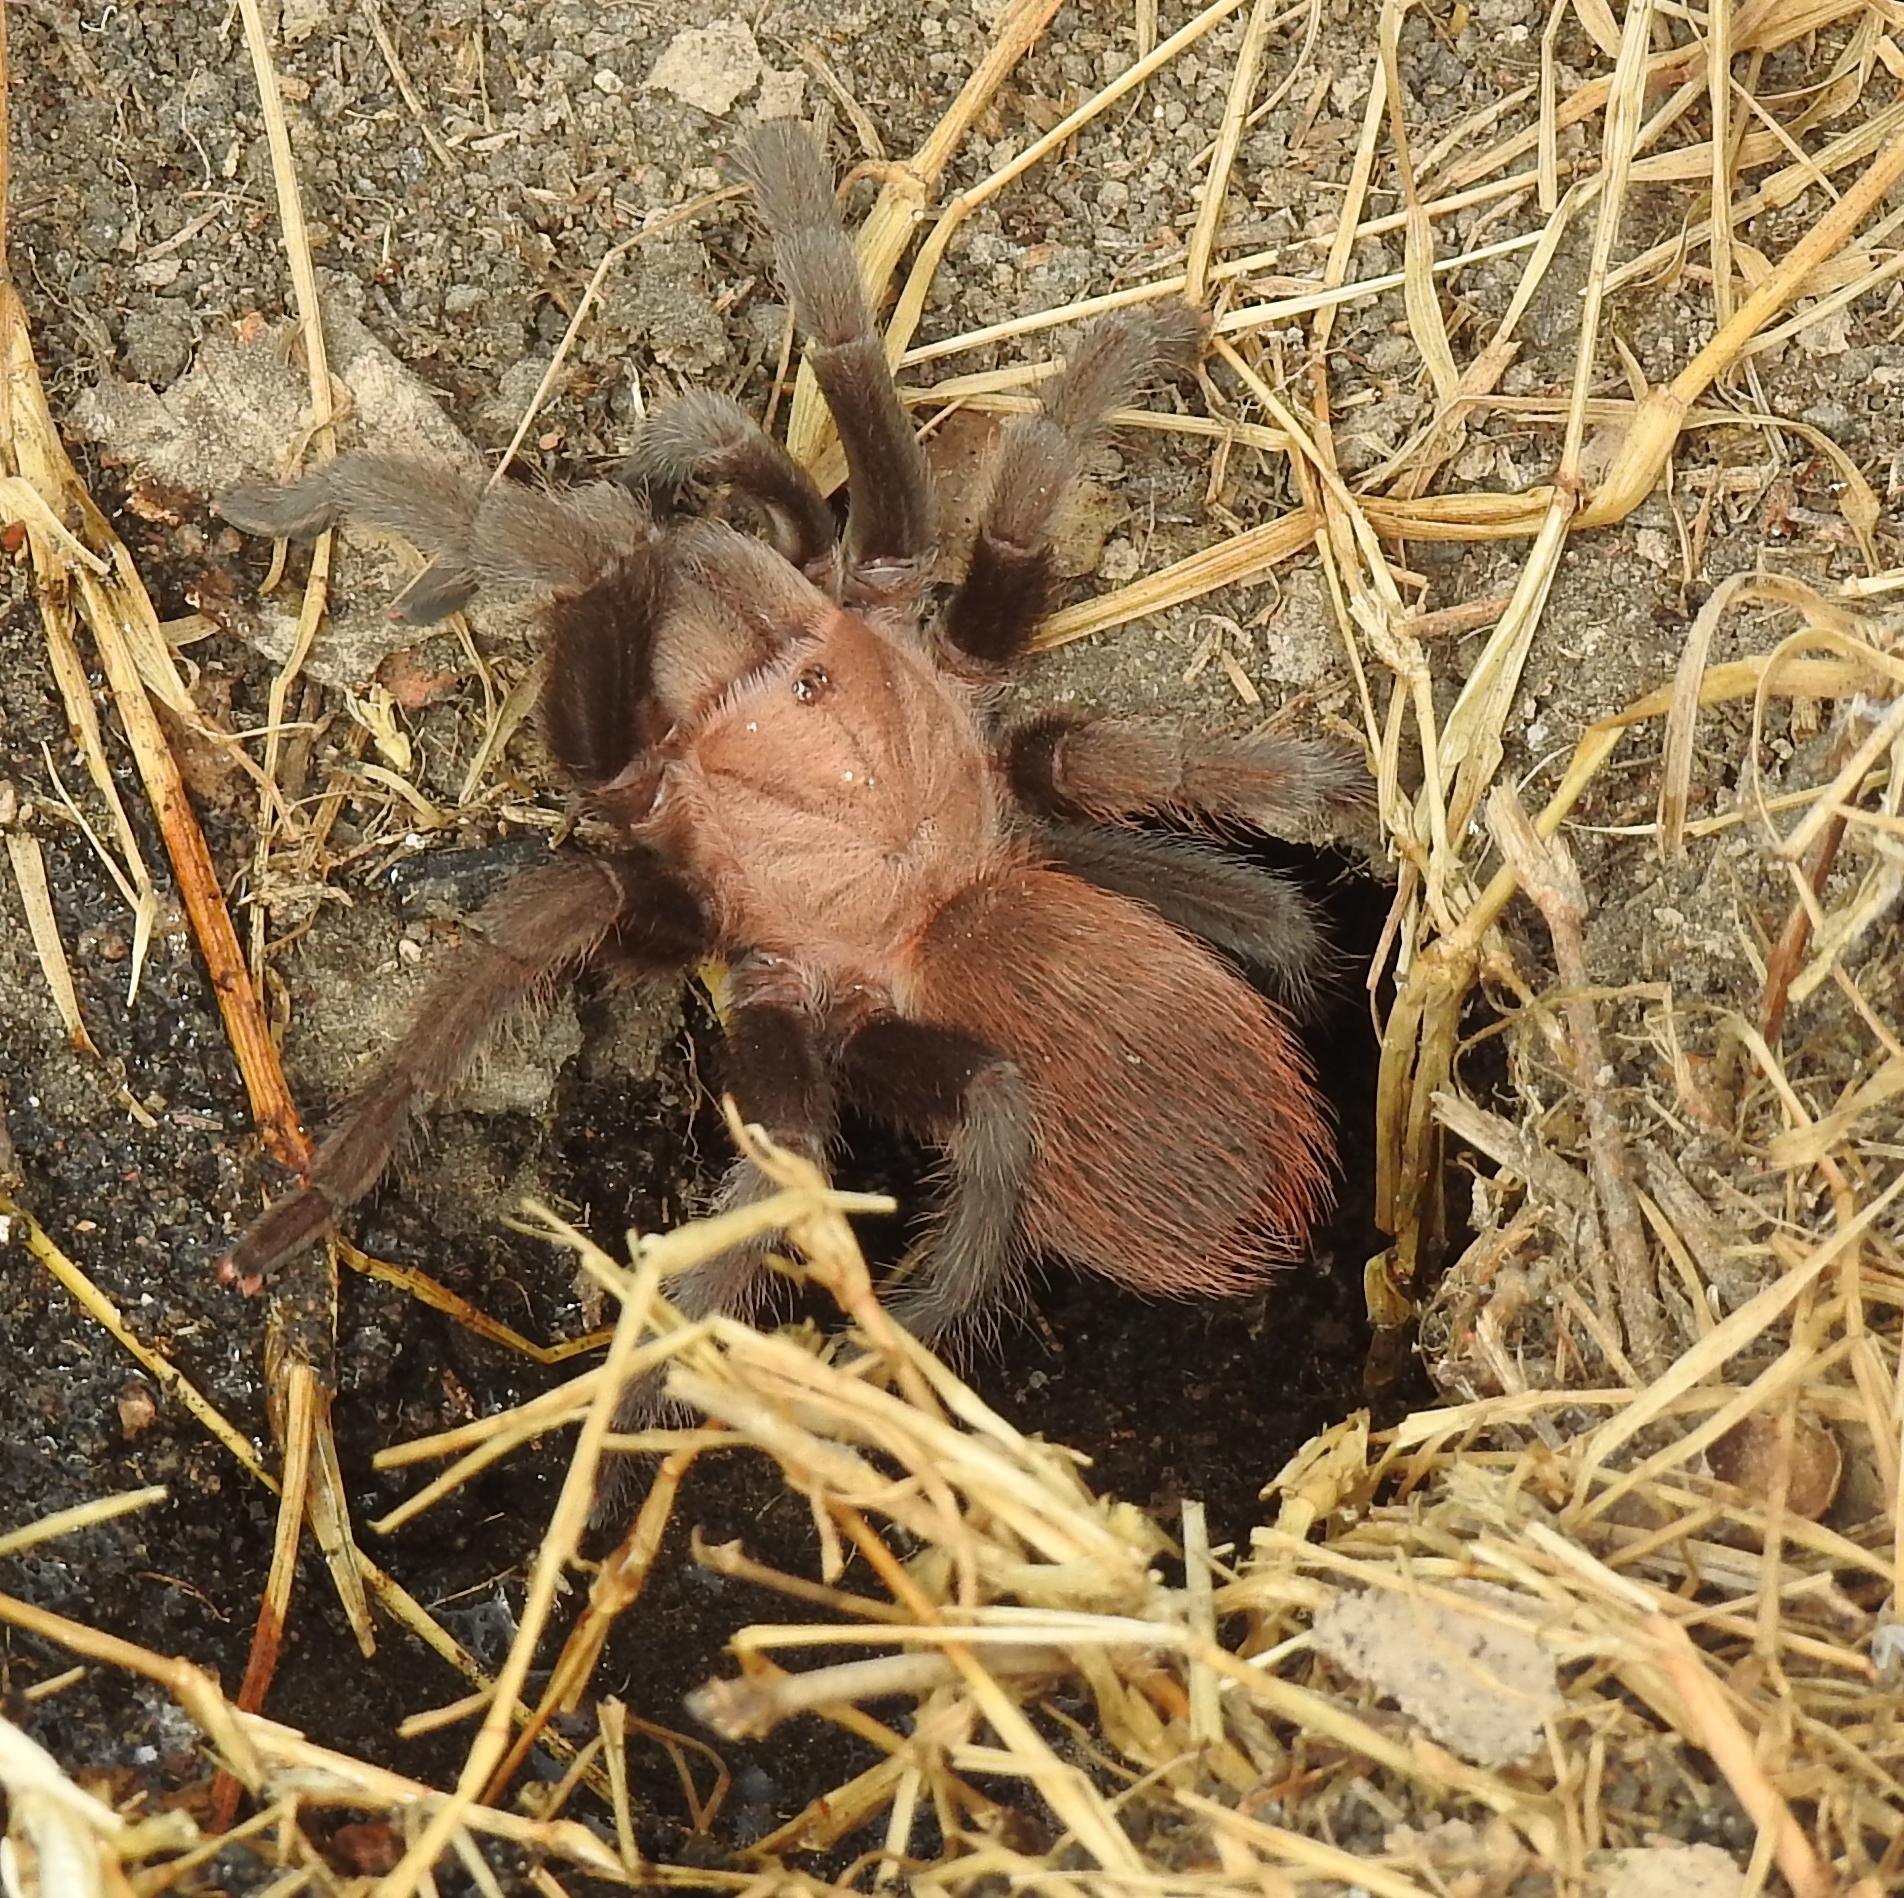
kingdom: Animalia
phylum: Arthropoda
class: Arachnida
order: Araneae
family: Theraphosidae
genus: Aphonopelma
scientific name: Aphonopelma anax
